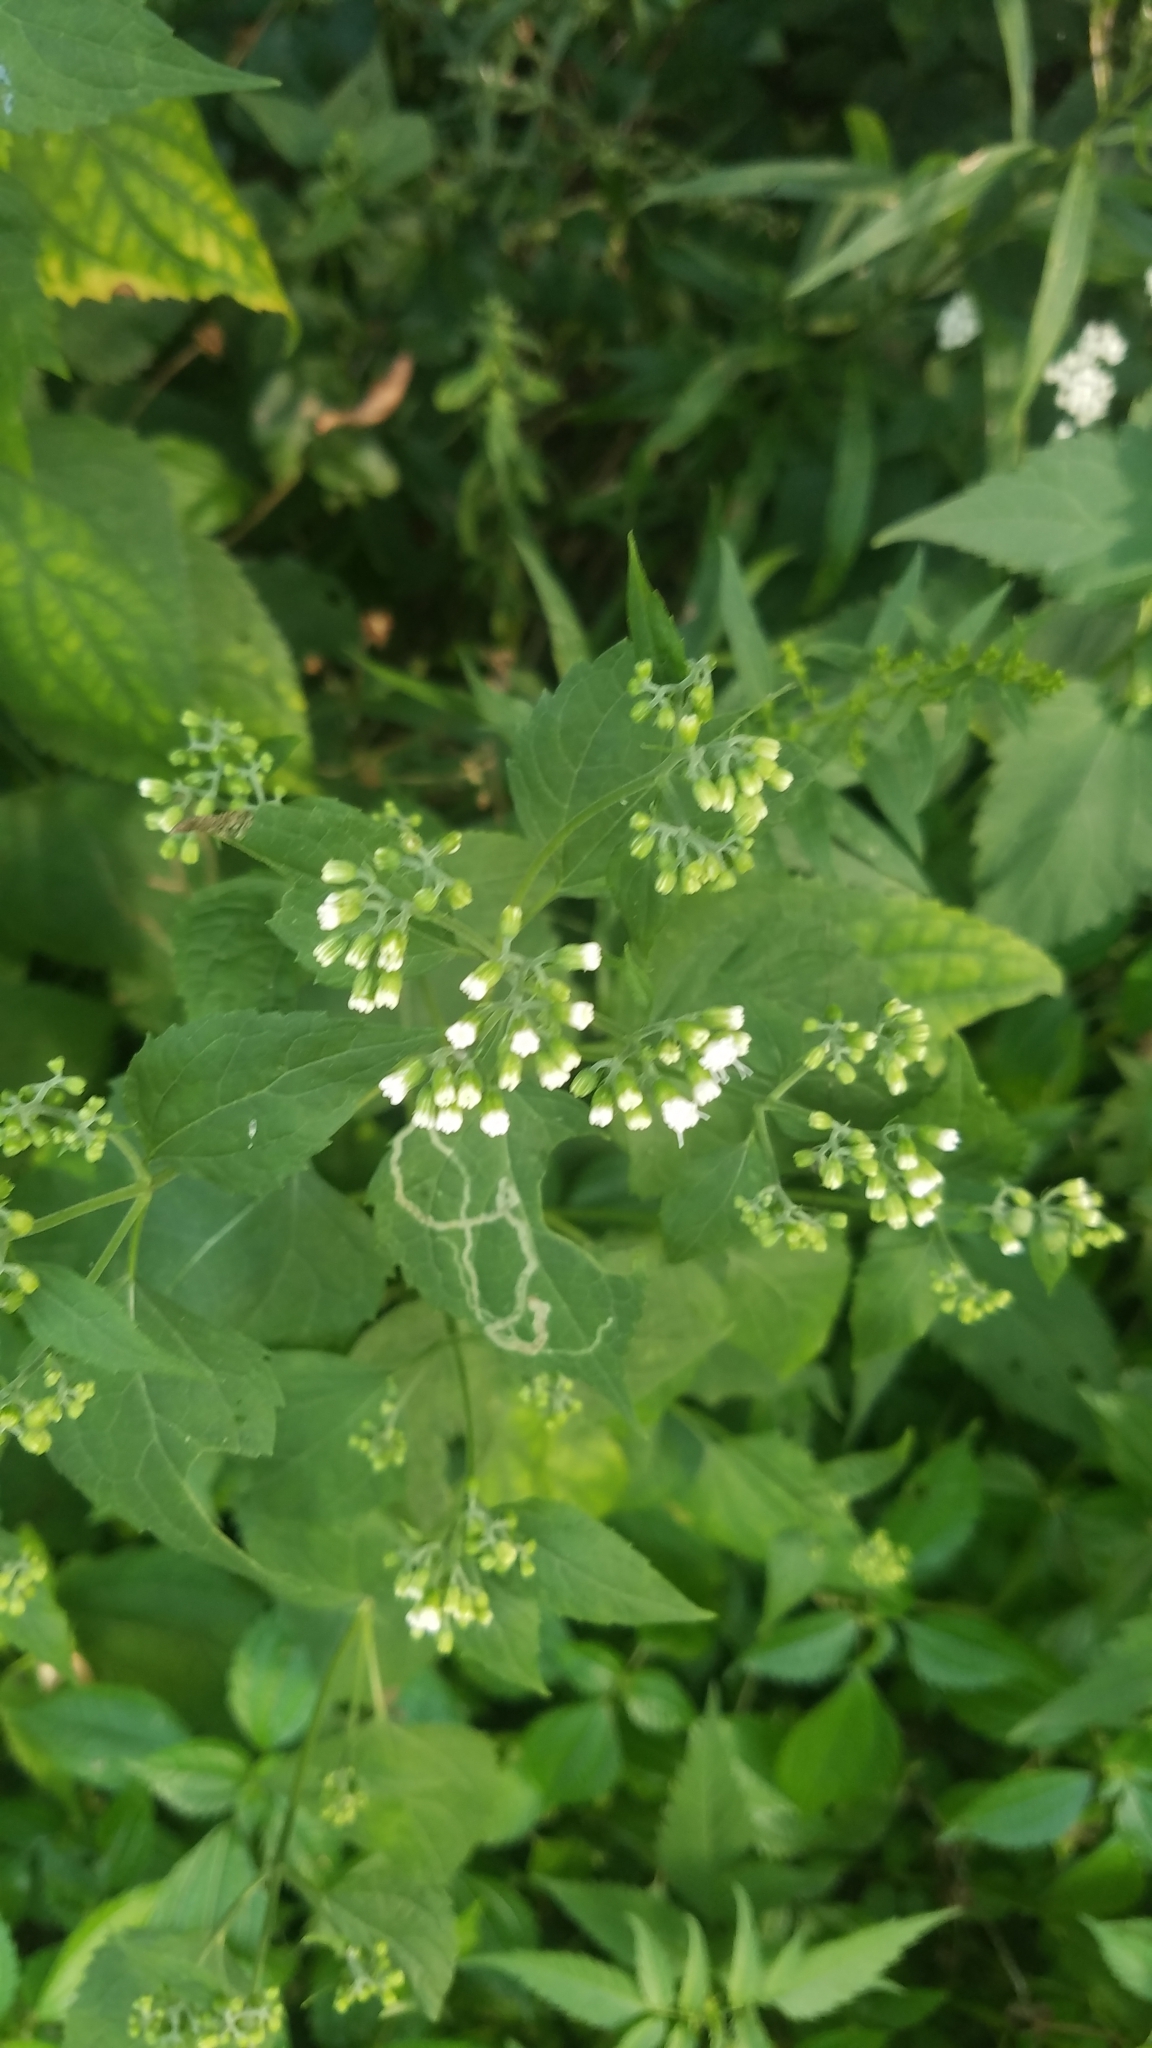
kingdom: Plantae
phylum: Tracheophyta
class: Magnoliopsida
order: Asterales
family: Asteraceae
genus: Ageratina
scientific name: Ageratina altissima
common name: White snakeroot
